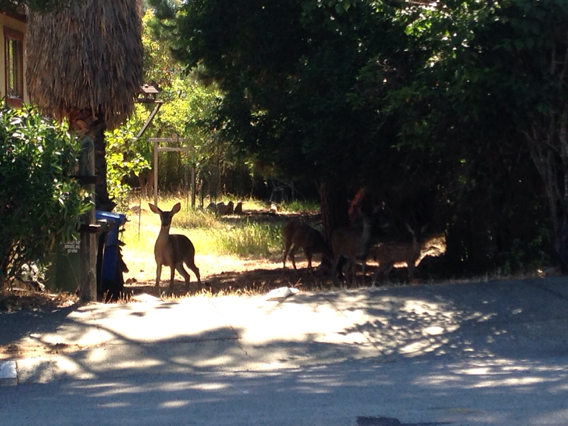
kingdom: Animalia
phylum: Chordata
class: Mammalia
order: Artiodactyla
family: Cervidae
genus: Odocoileus
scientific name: Odocoileus hemionus
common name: Mule deer
